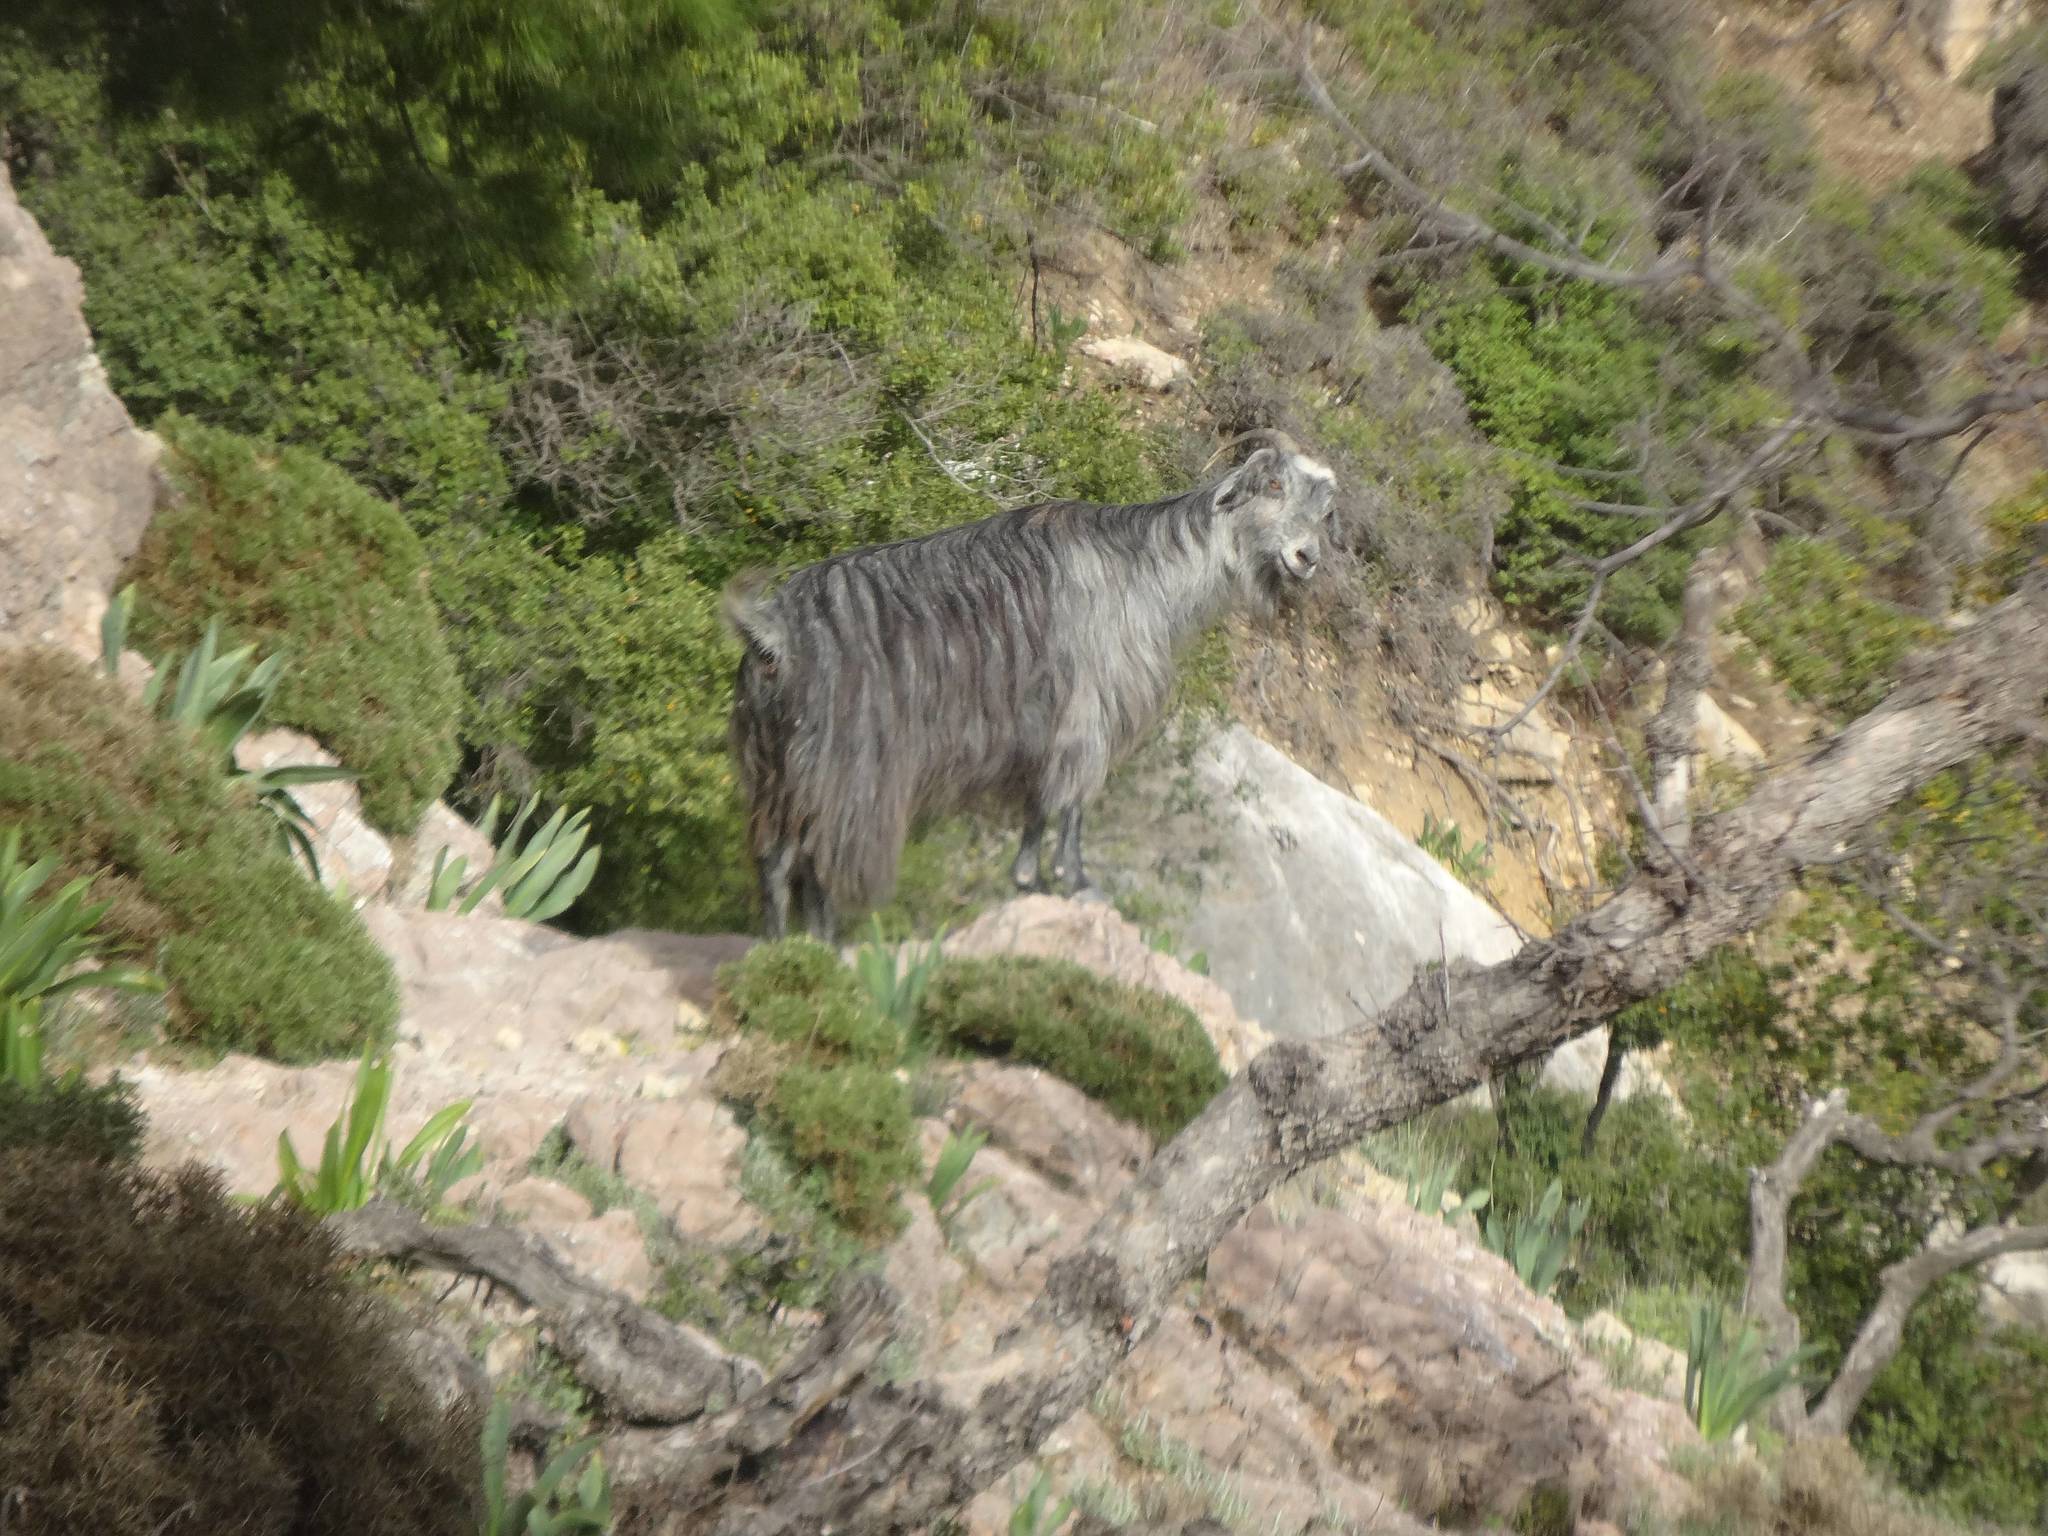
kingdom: Animalia
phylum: Chordata
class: Mammalia
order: Artiodactyla
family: Bovidae
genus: Capra
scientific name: Capra hircus
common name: Domestic goat
